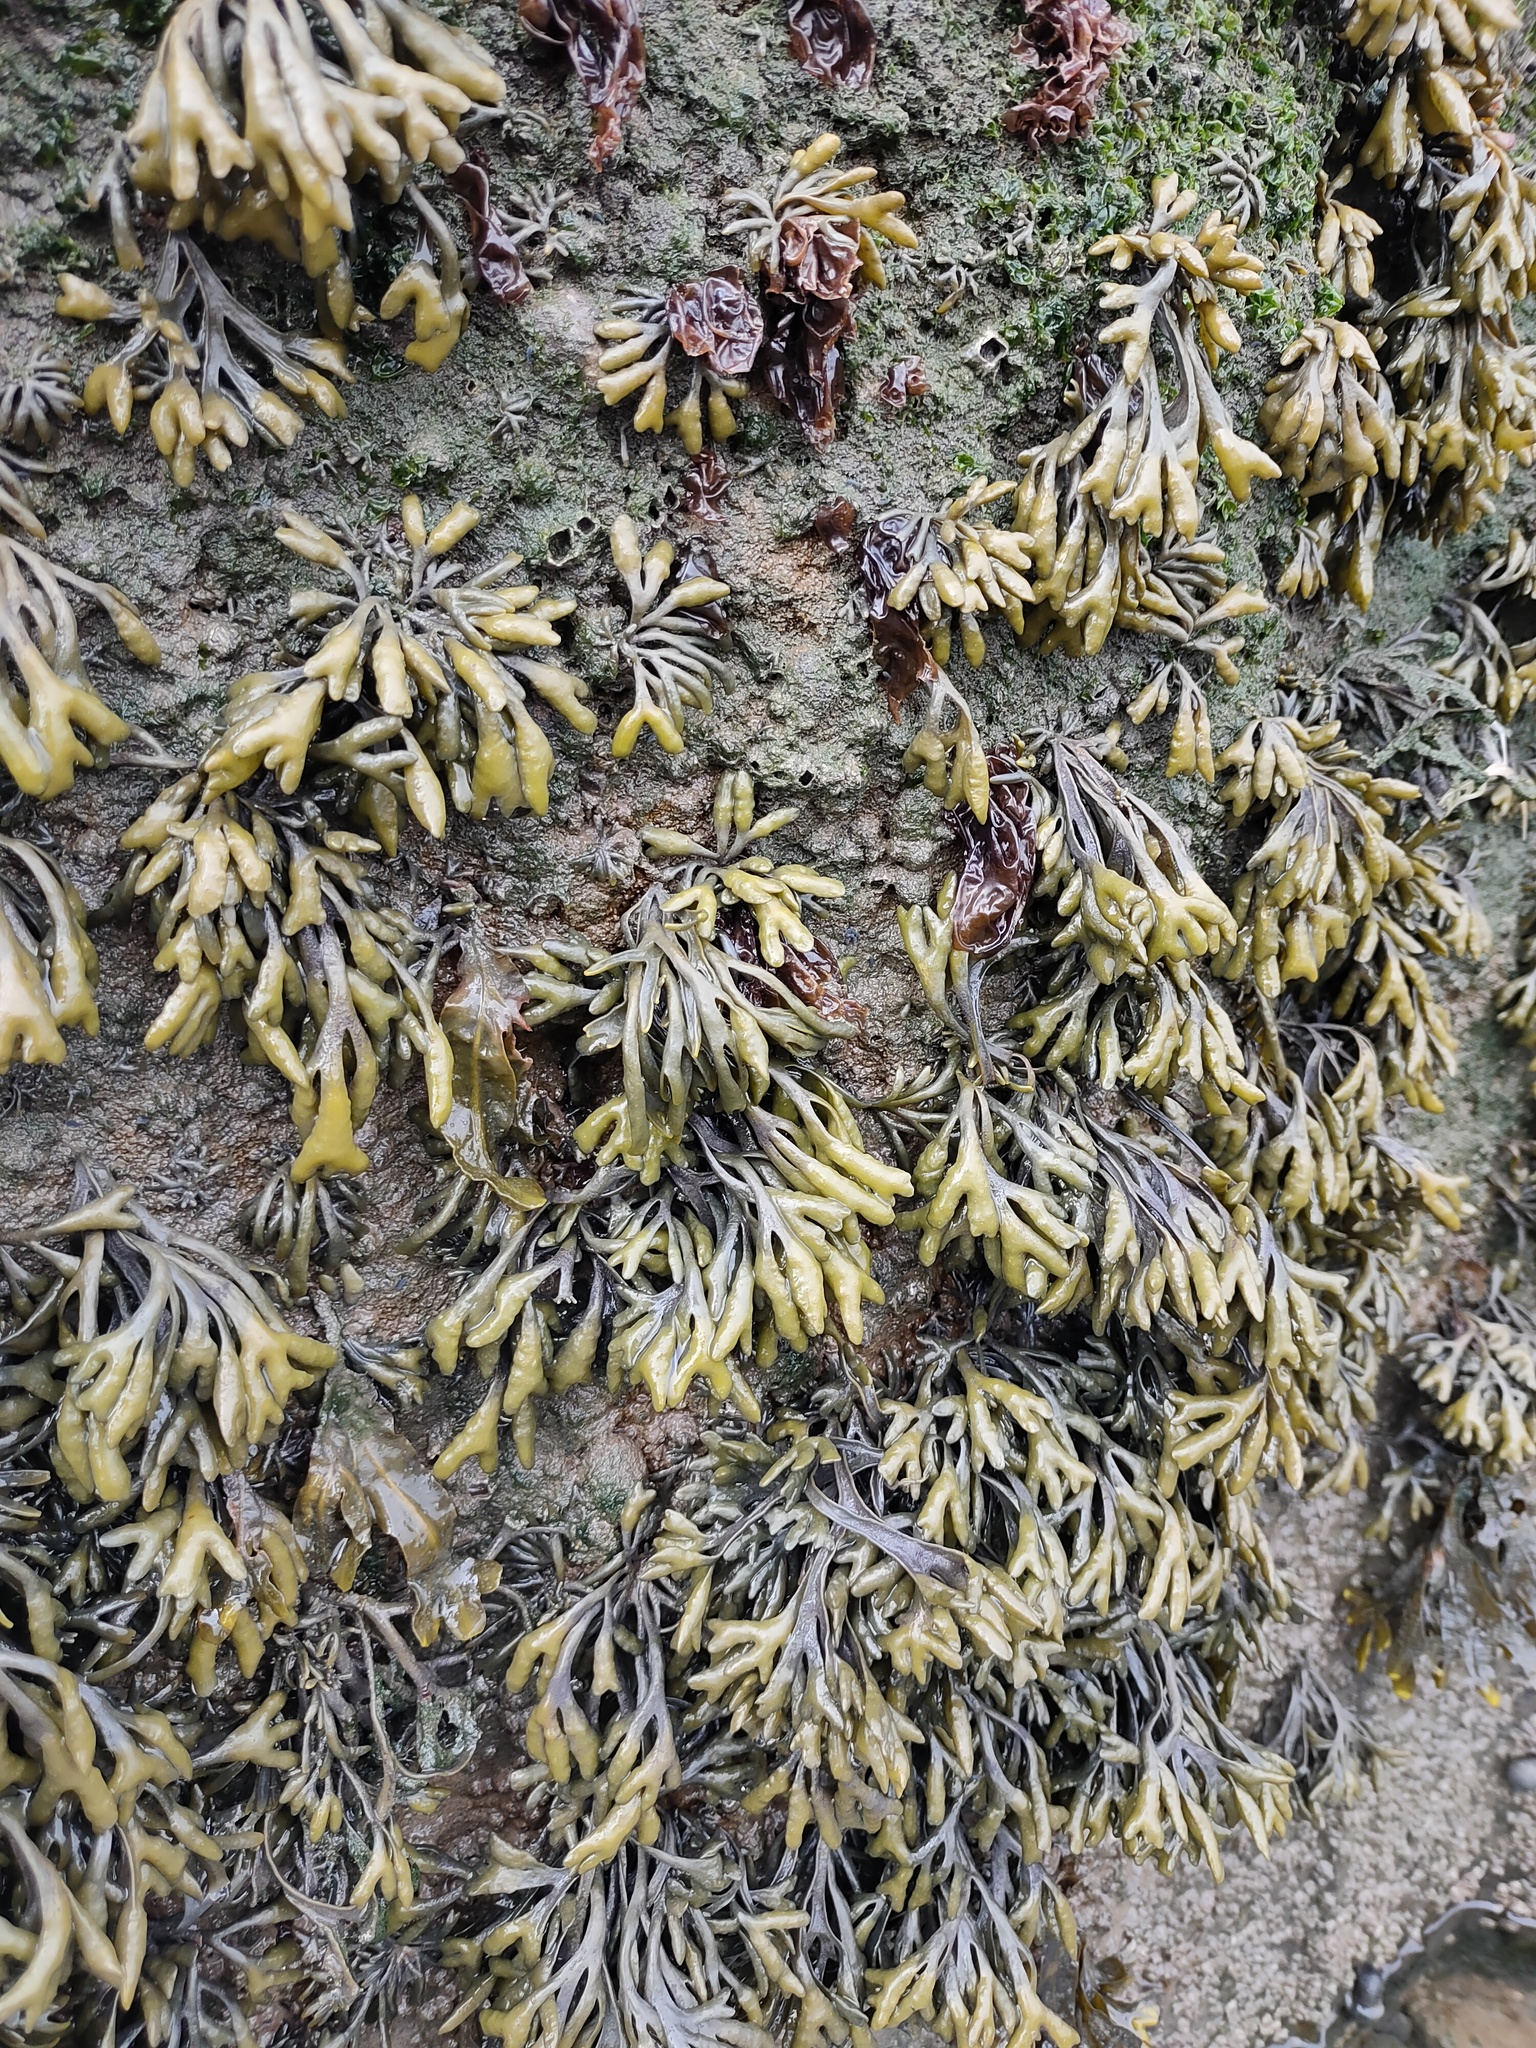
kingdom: Chromista
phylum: Ochrophyta
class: Phaeophyceae
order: Fucales
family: Fucaceae
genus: Pelvetia
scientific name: Pelvetia canaliculata
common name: Channelled wrack
